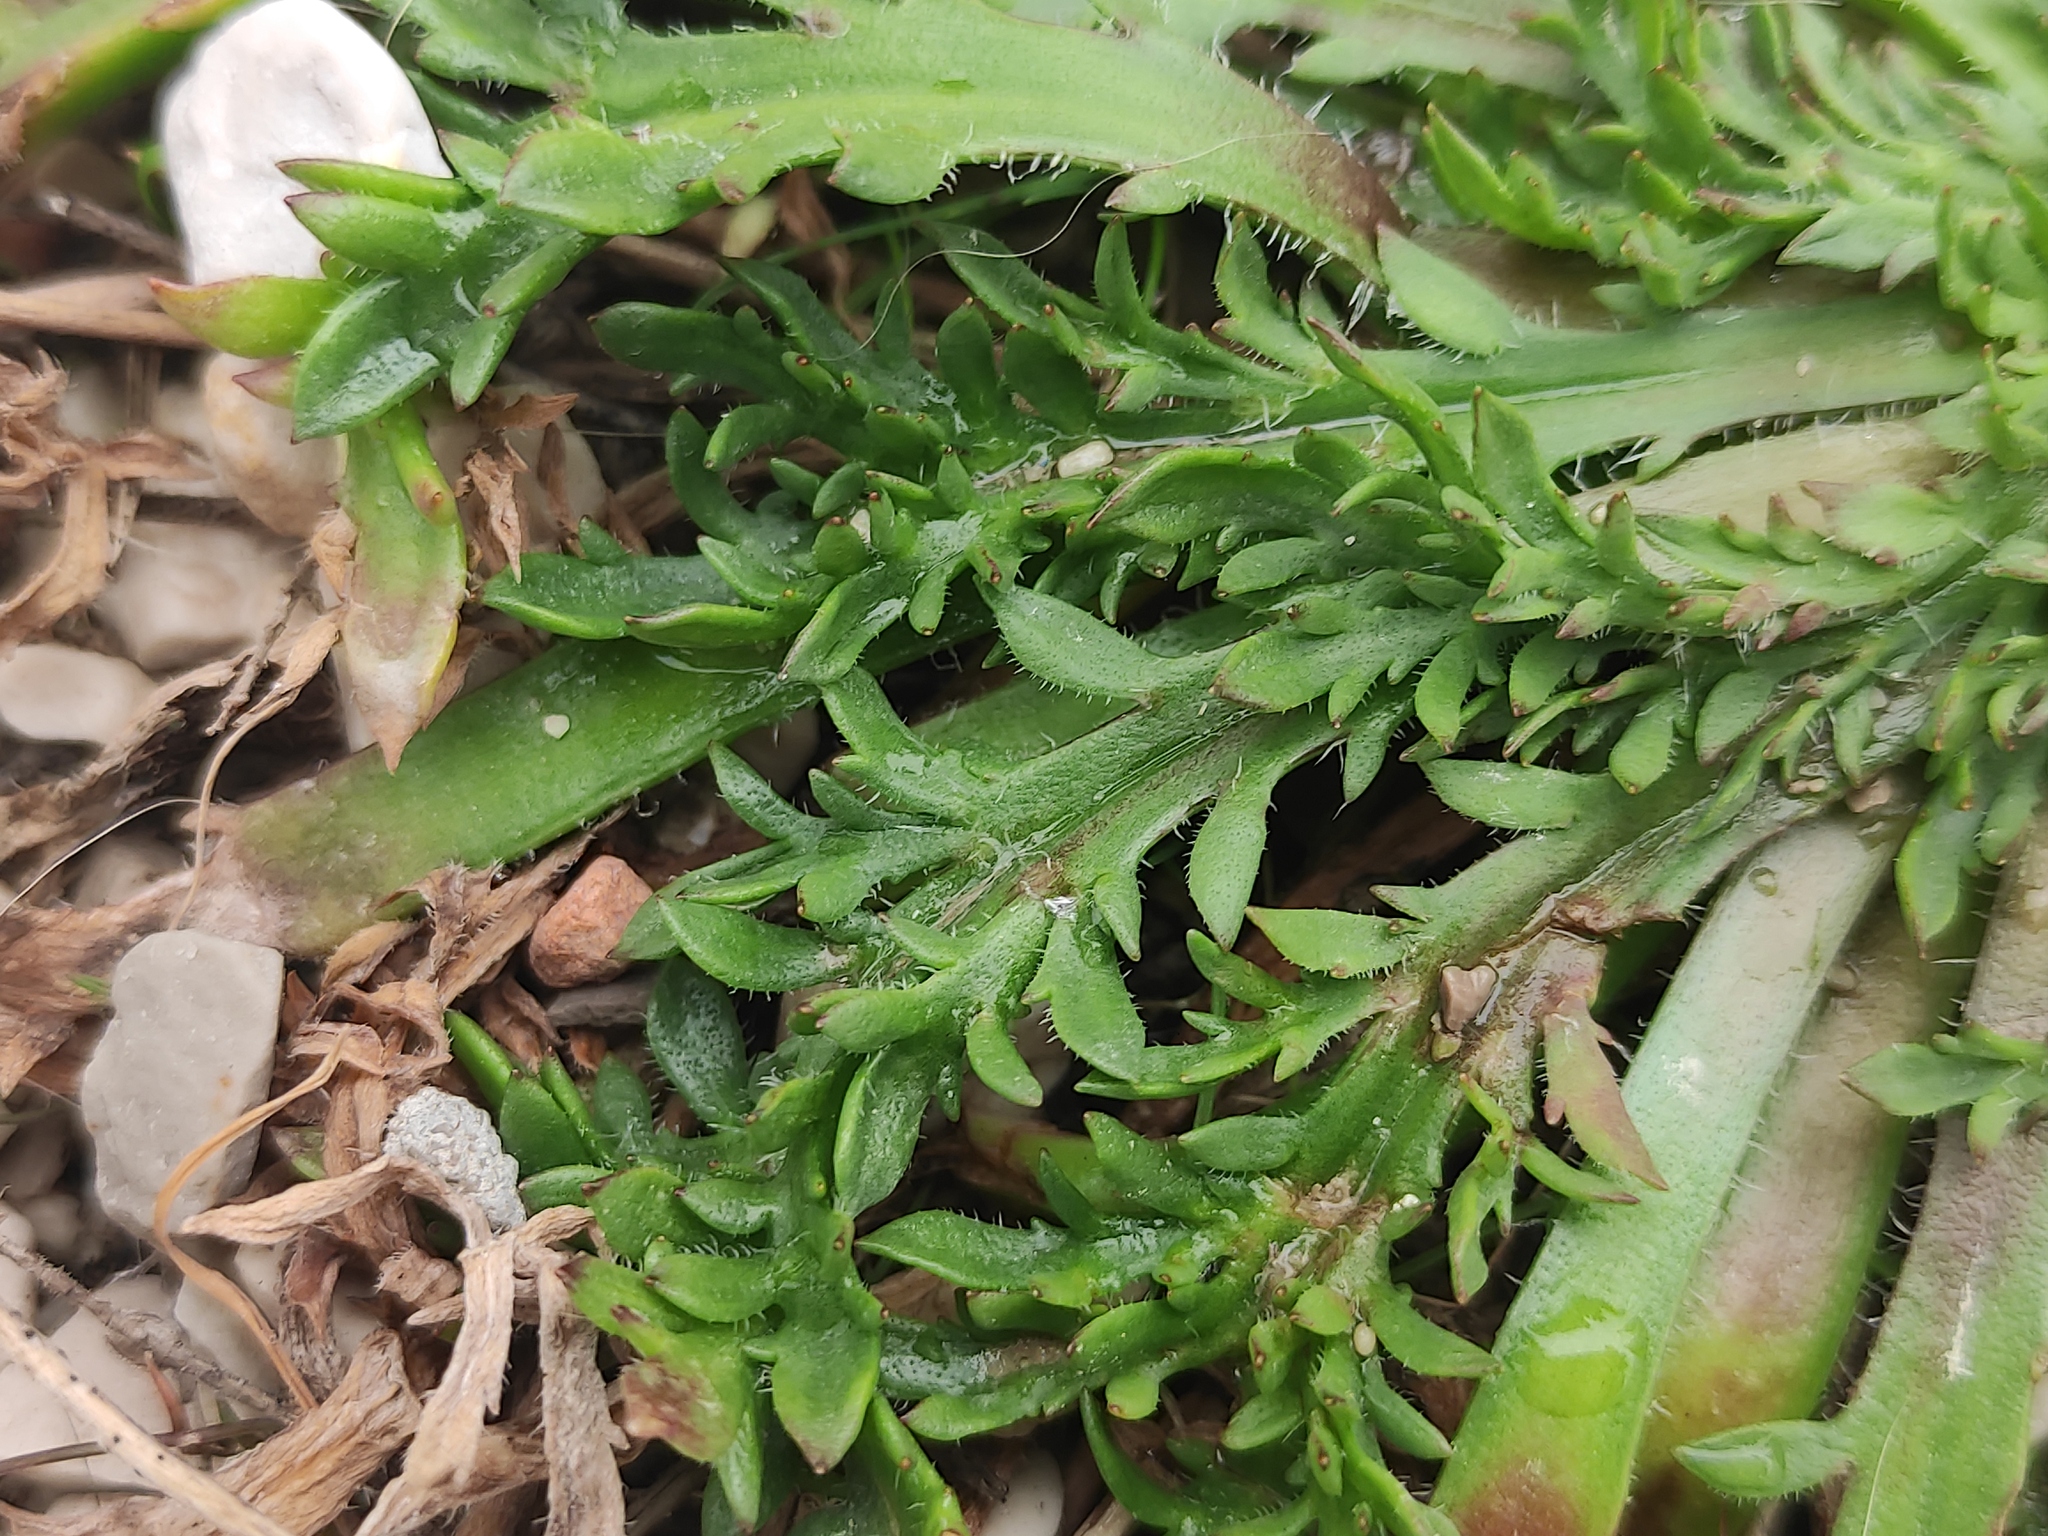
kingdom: Plantae
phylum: Tracheophyta
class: Magnoliopsida
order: Lamiales
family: Plantaginaceae
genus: Plantago
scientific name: Plantago coronopus
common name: Buck's-horn plantain
